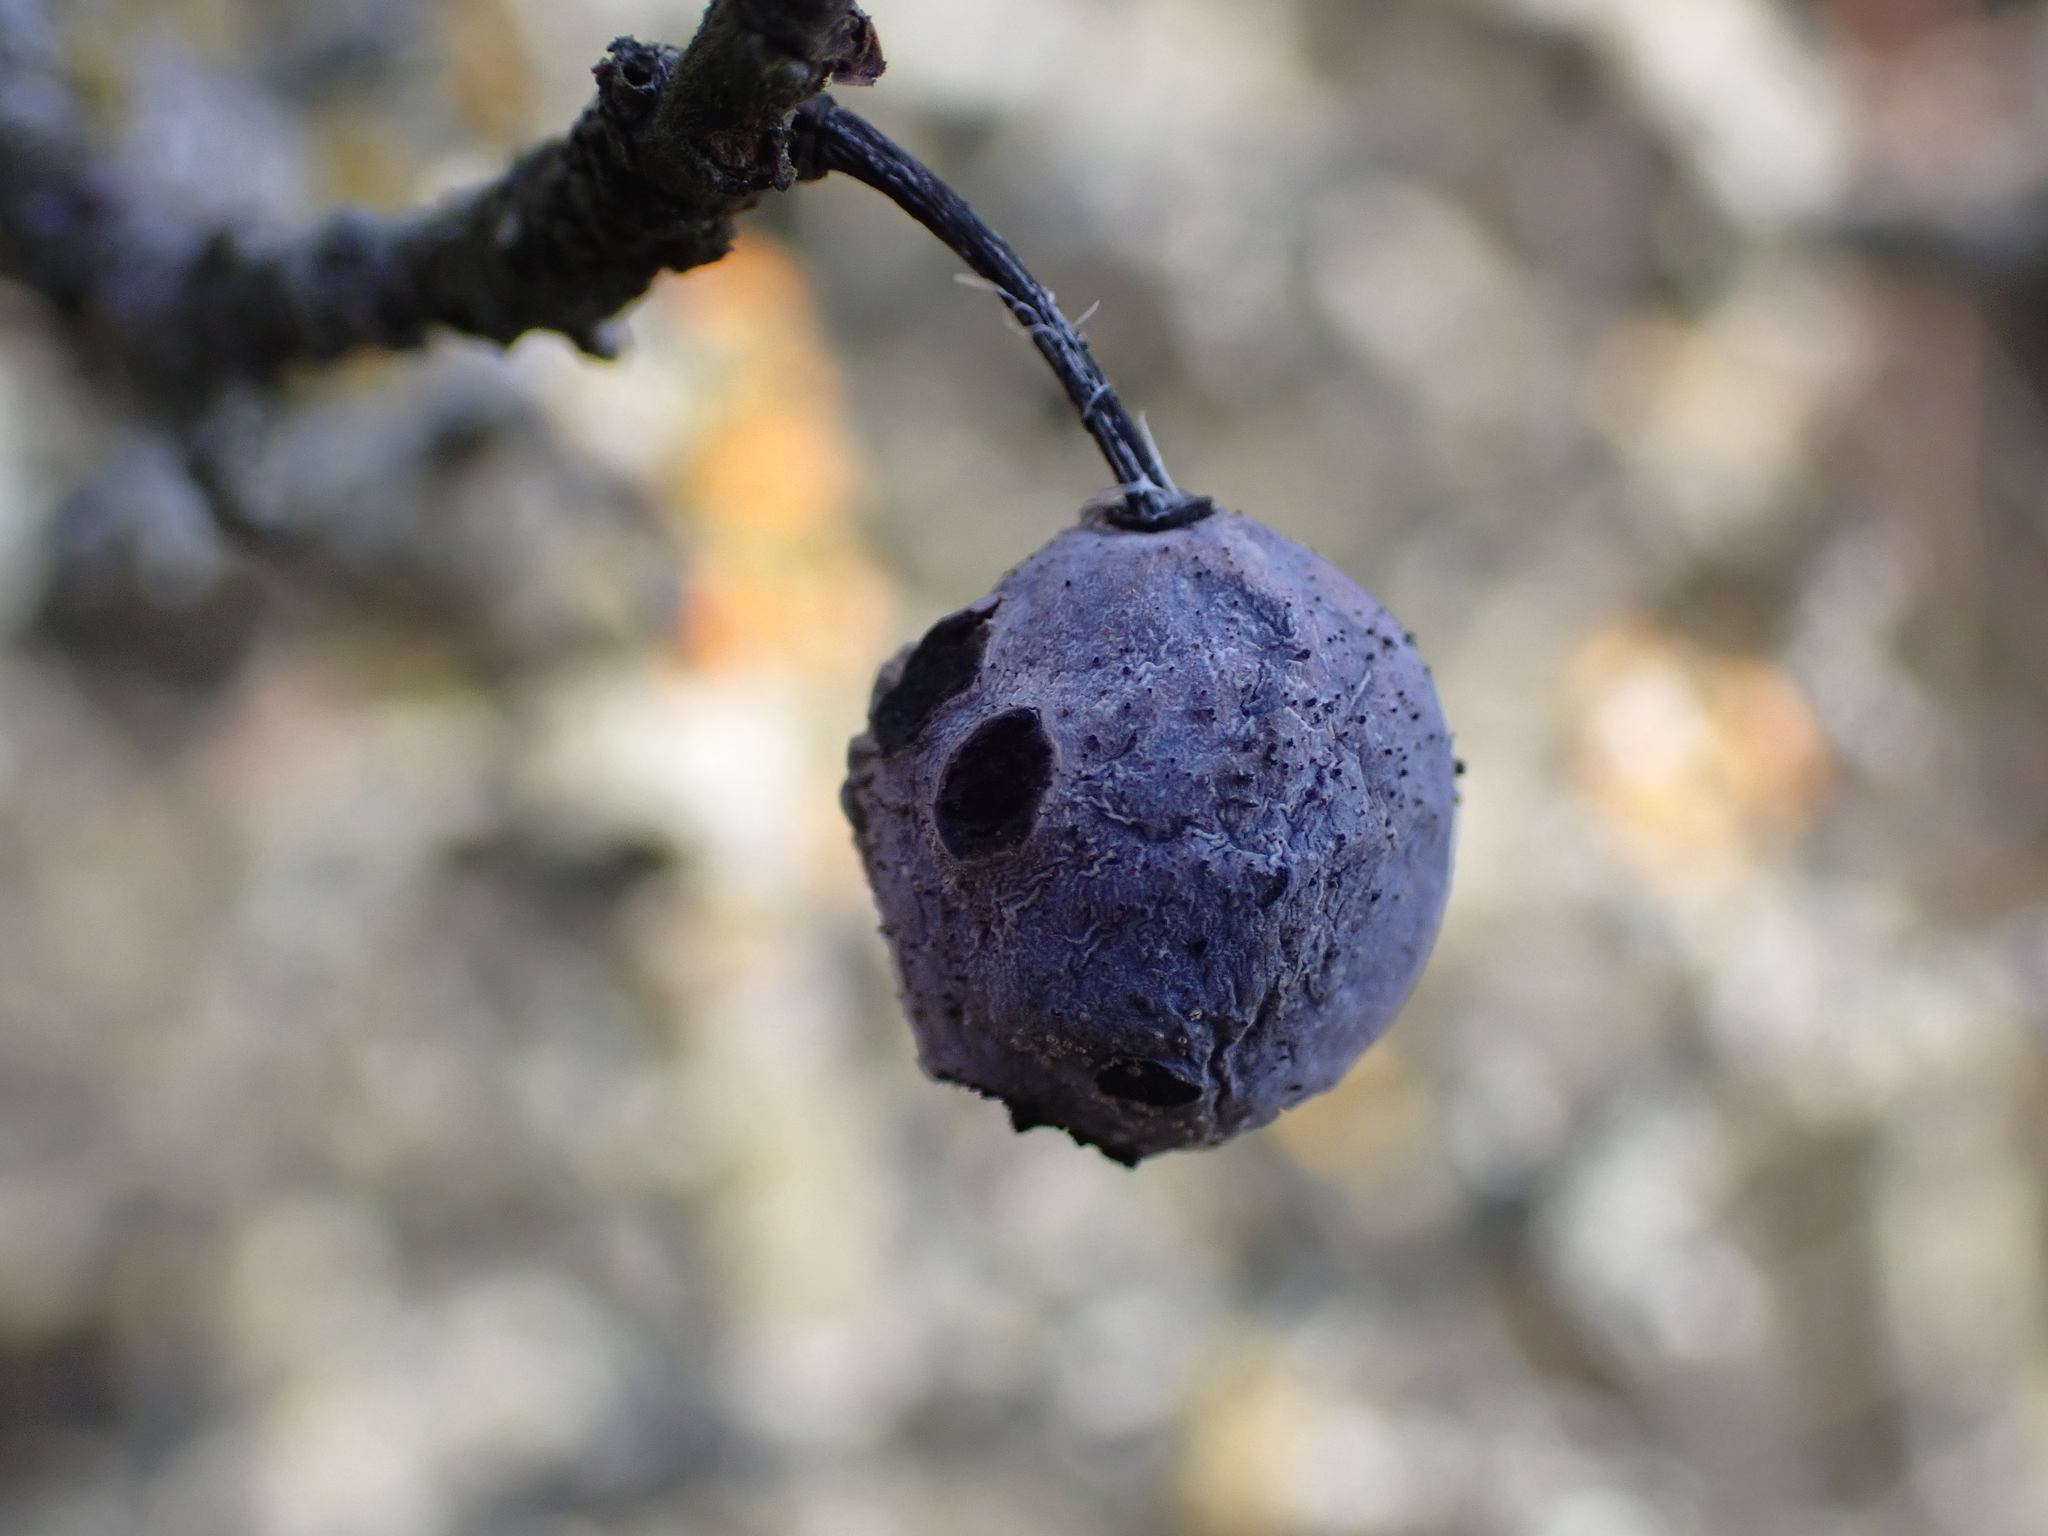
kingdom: Plantae
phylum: Tracheophyta
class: Magnoliopsida
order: Rosales
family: Rosaceae
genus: Prunus
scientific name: Prunus spinosa
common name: Blackthorn
